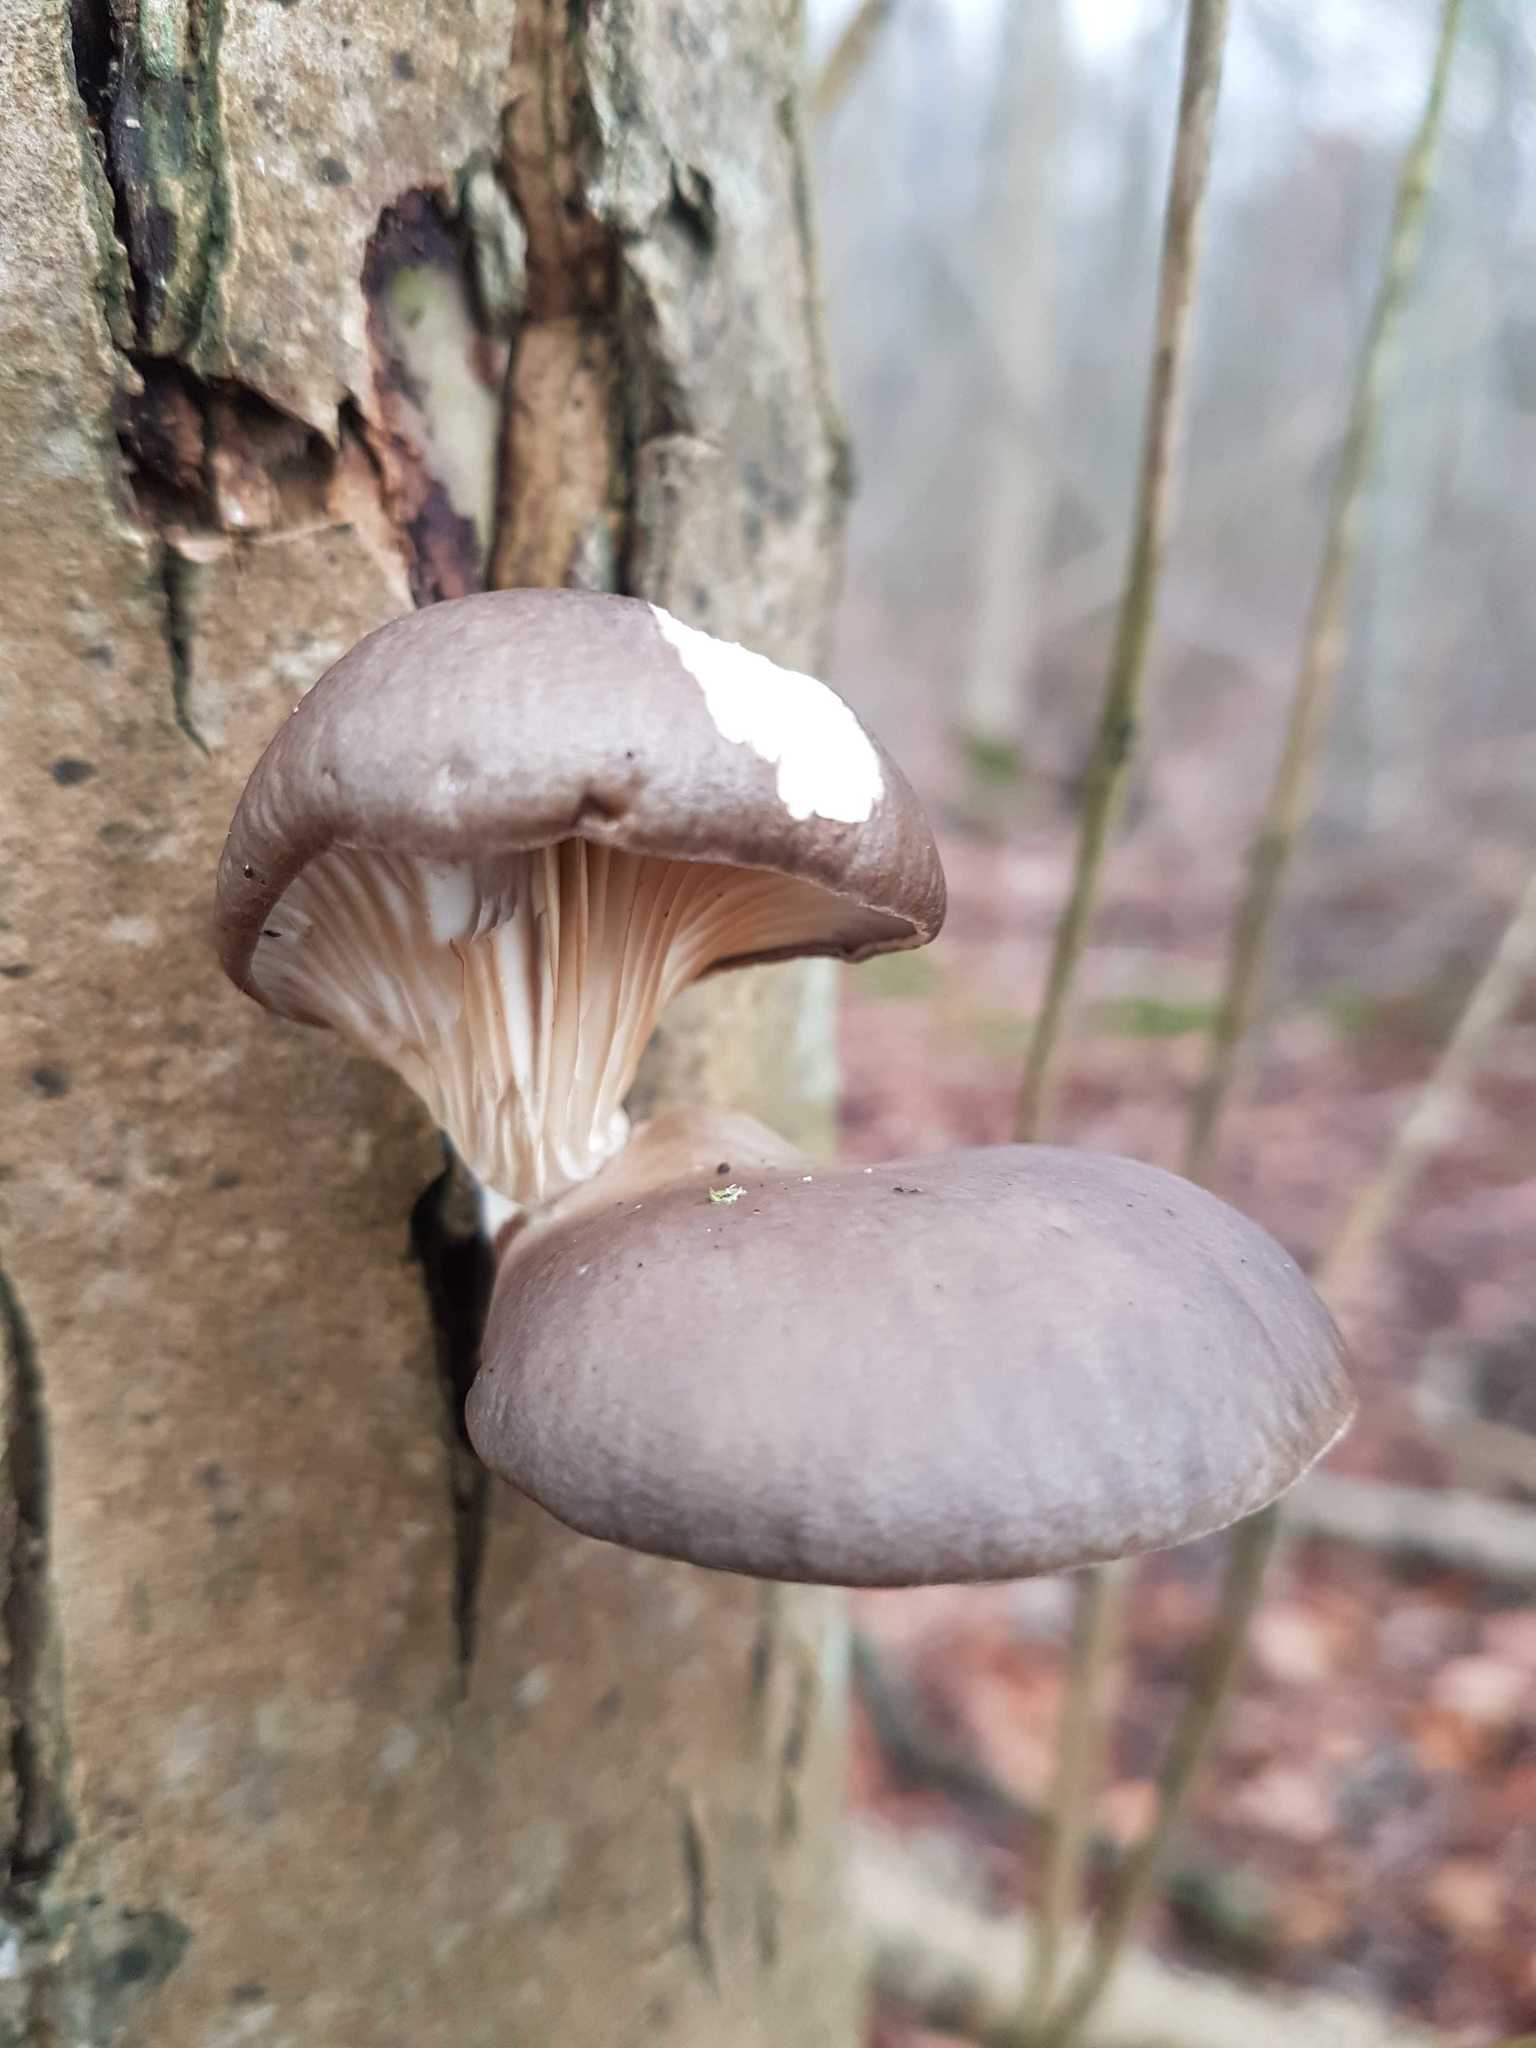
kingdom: Fungi
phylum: Basidiomycota
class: Agaricomycetes
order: Agaricales
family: Pleurotaceae
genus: Pleurotus
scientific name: Pleurotus ostreatus
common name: Oyster mushroom
